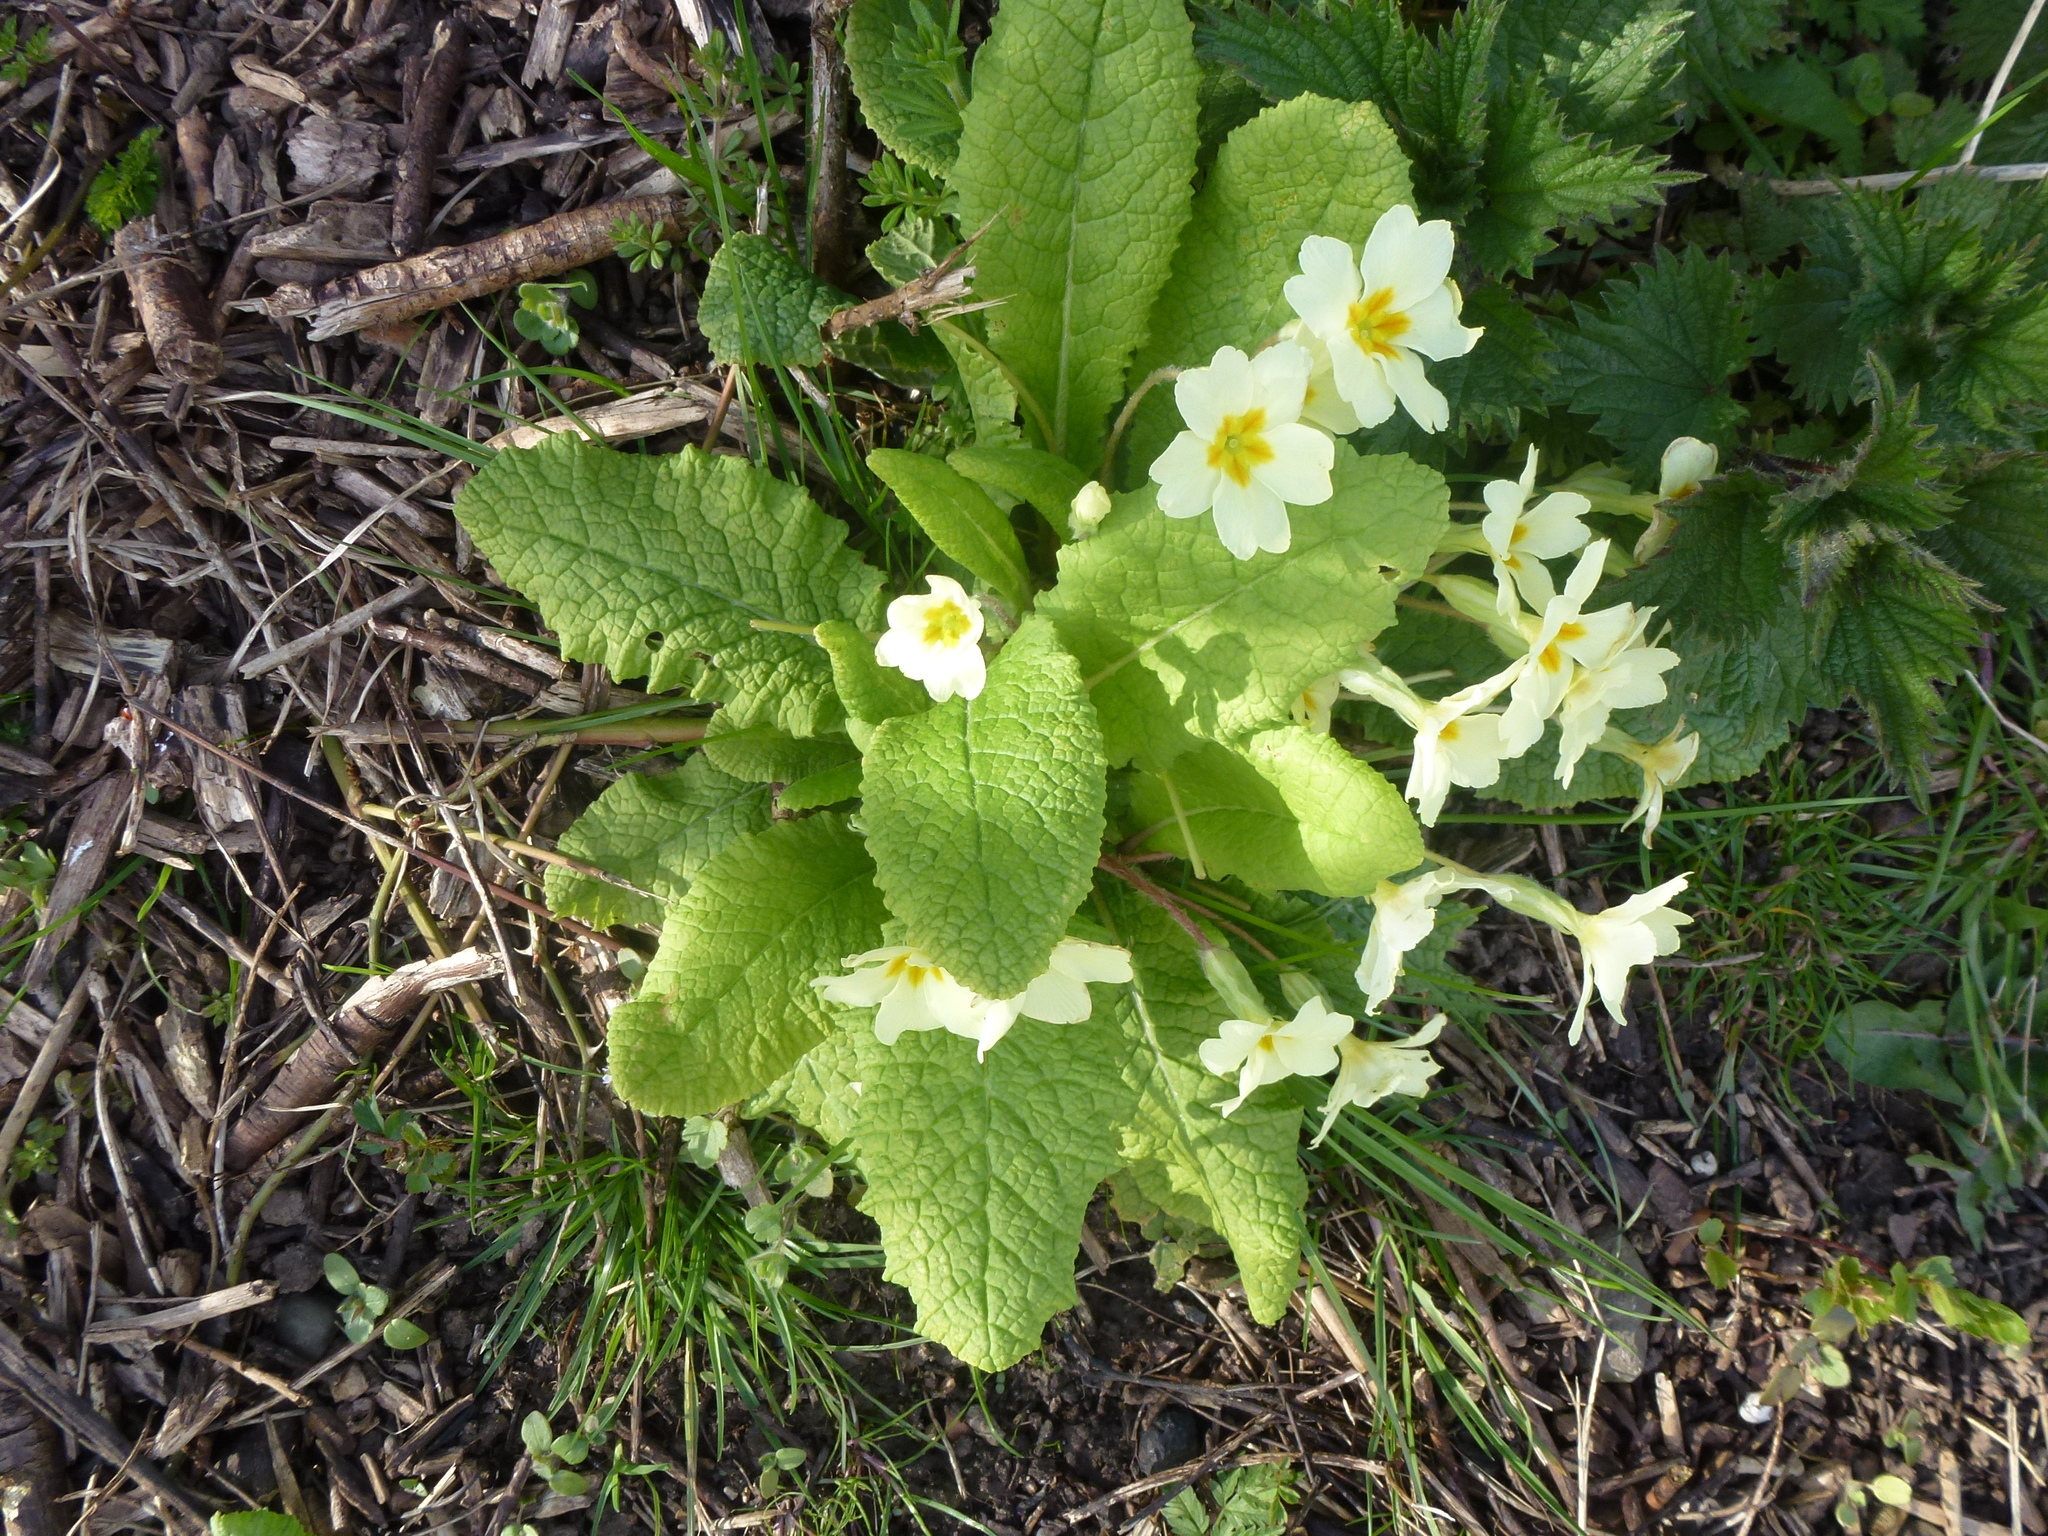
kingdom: Plantae
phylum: Tracheophyta
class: Magnoliopsida
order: Ericales
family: Primulaceae
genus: Primula
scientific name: Primula vulgaris
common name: Primrose
